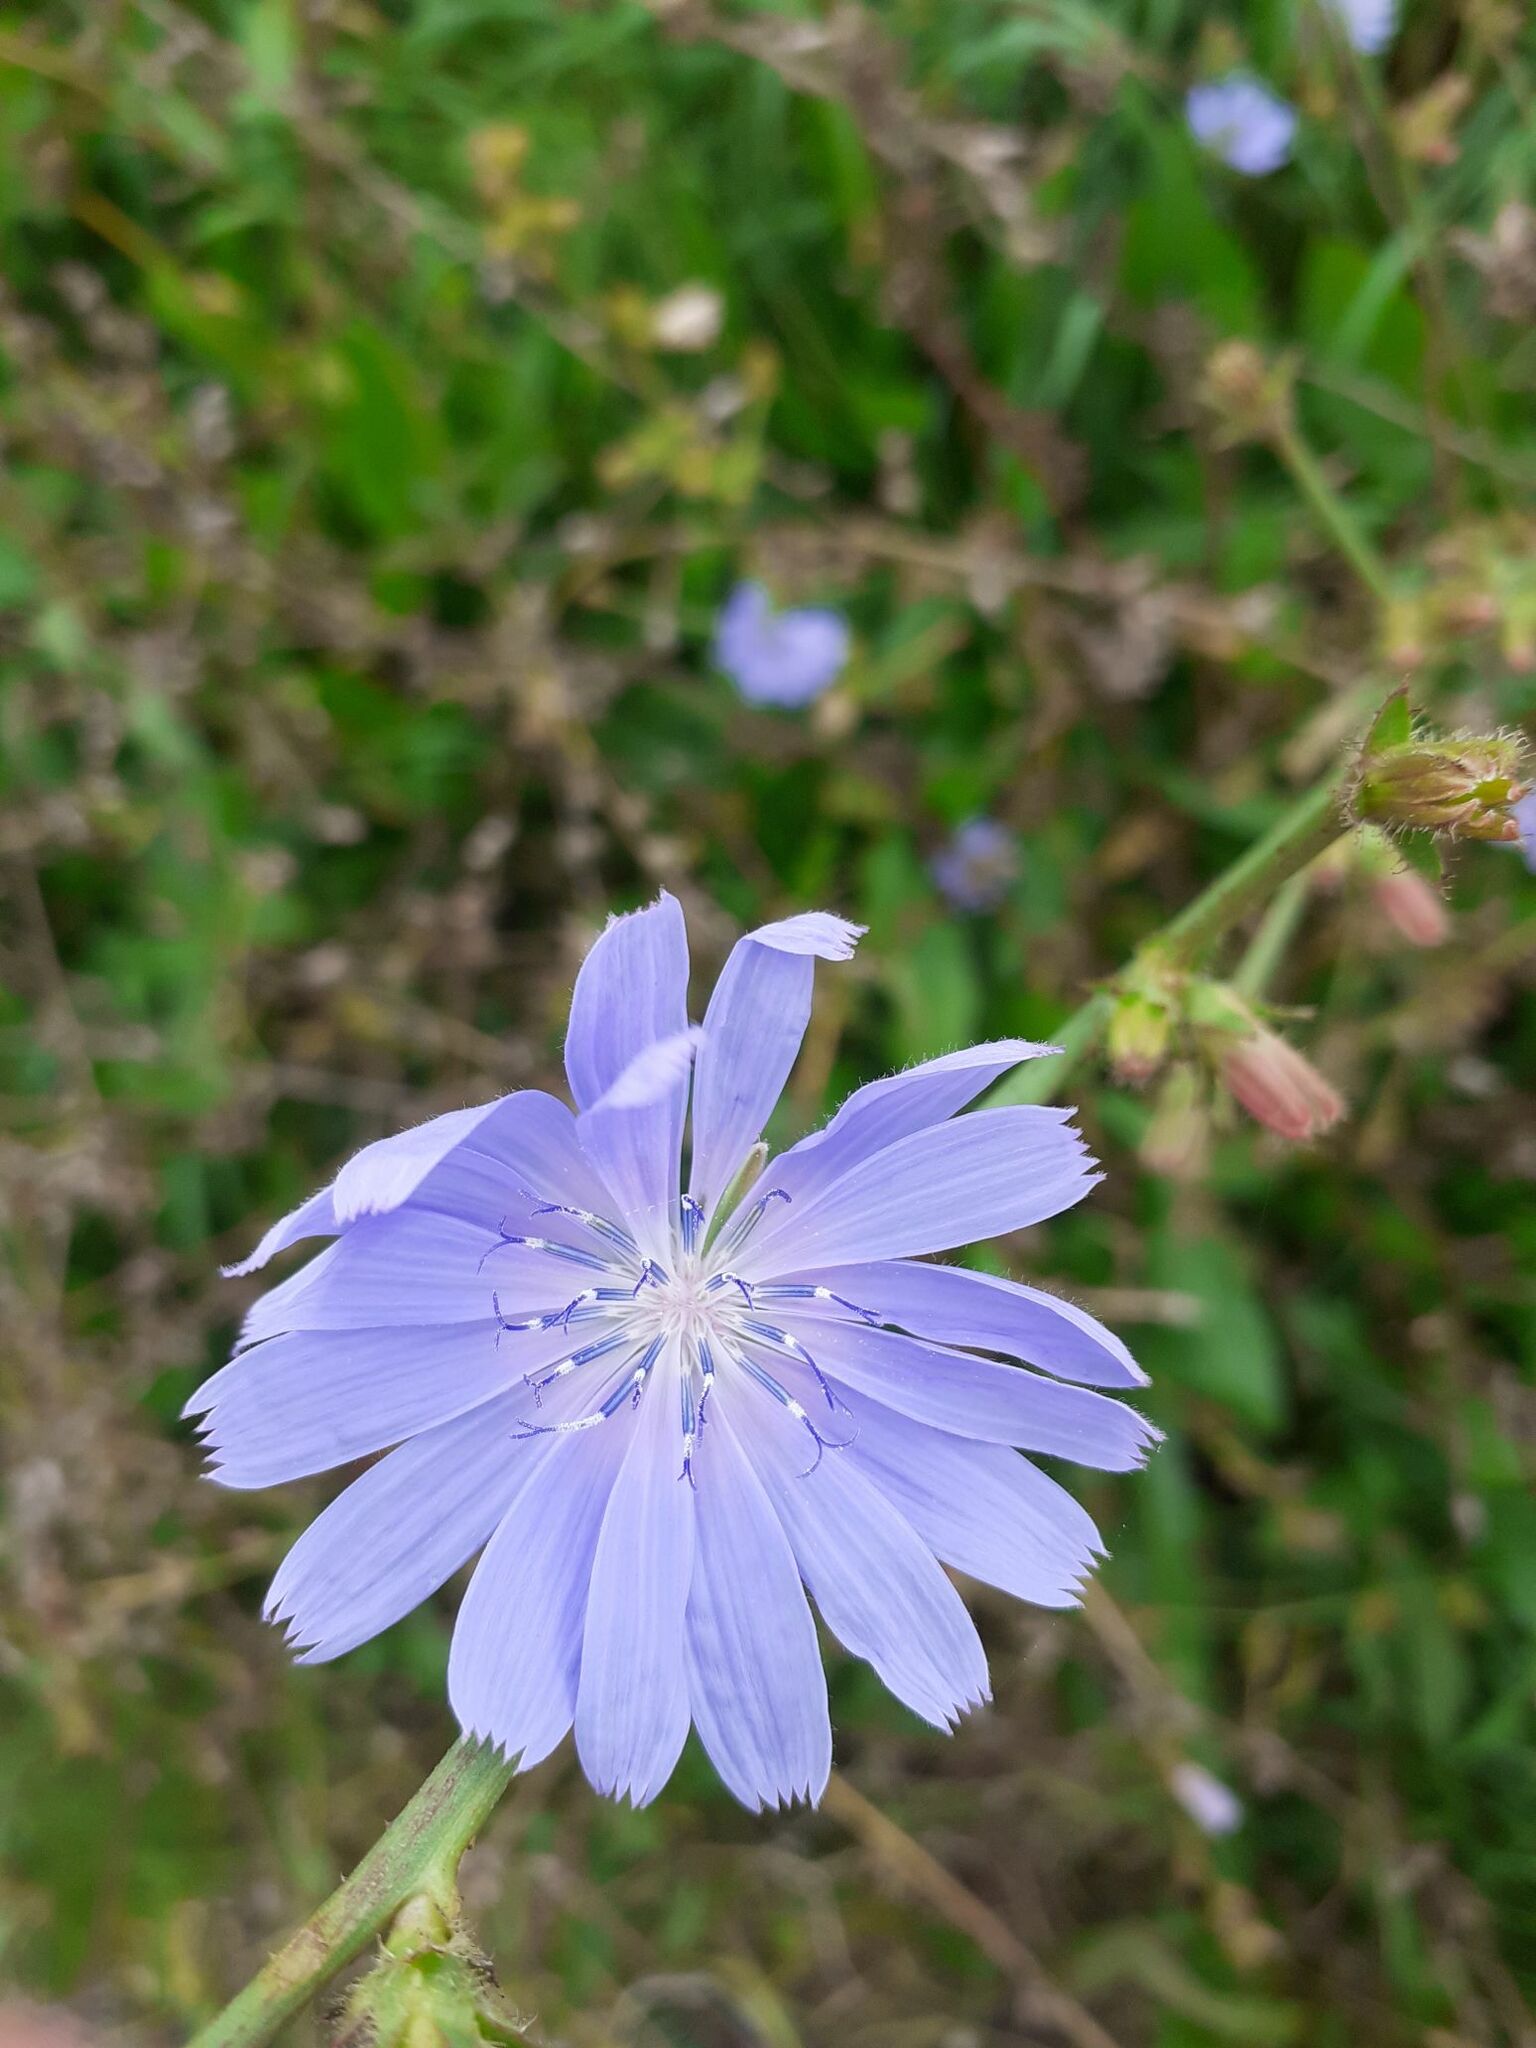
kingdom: Plantae
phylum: Tracheophyta
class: Magnoliopsida
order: Asterales
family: Asteraceae
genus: Cichorium
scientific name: Cichorium intybus
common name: Chicory
